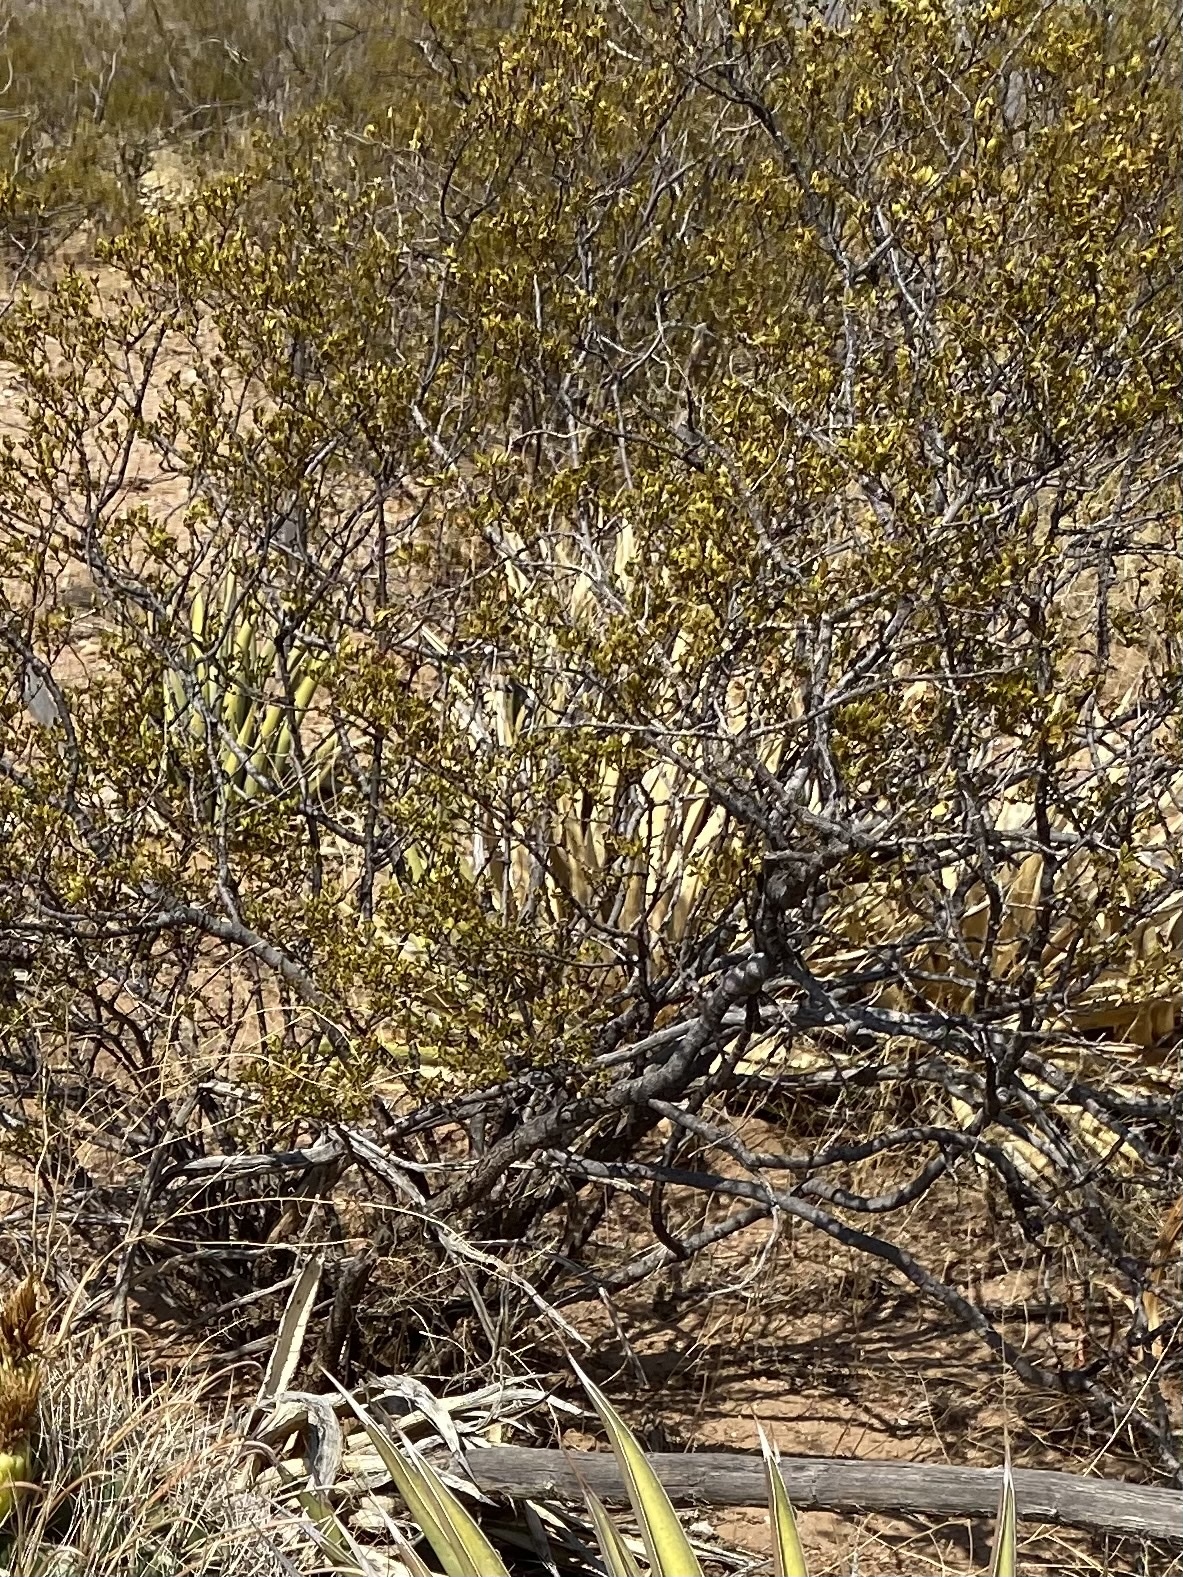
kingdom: Plantae
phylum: Tracheophyta
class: Magnoliopsida
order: Zygophyllales
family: Zygophyllaceae
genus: Larrea
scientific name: Larrea tridentata
